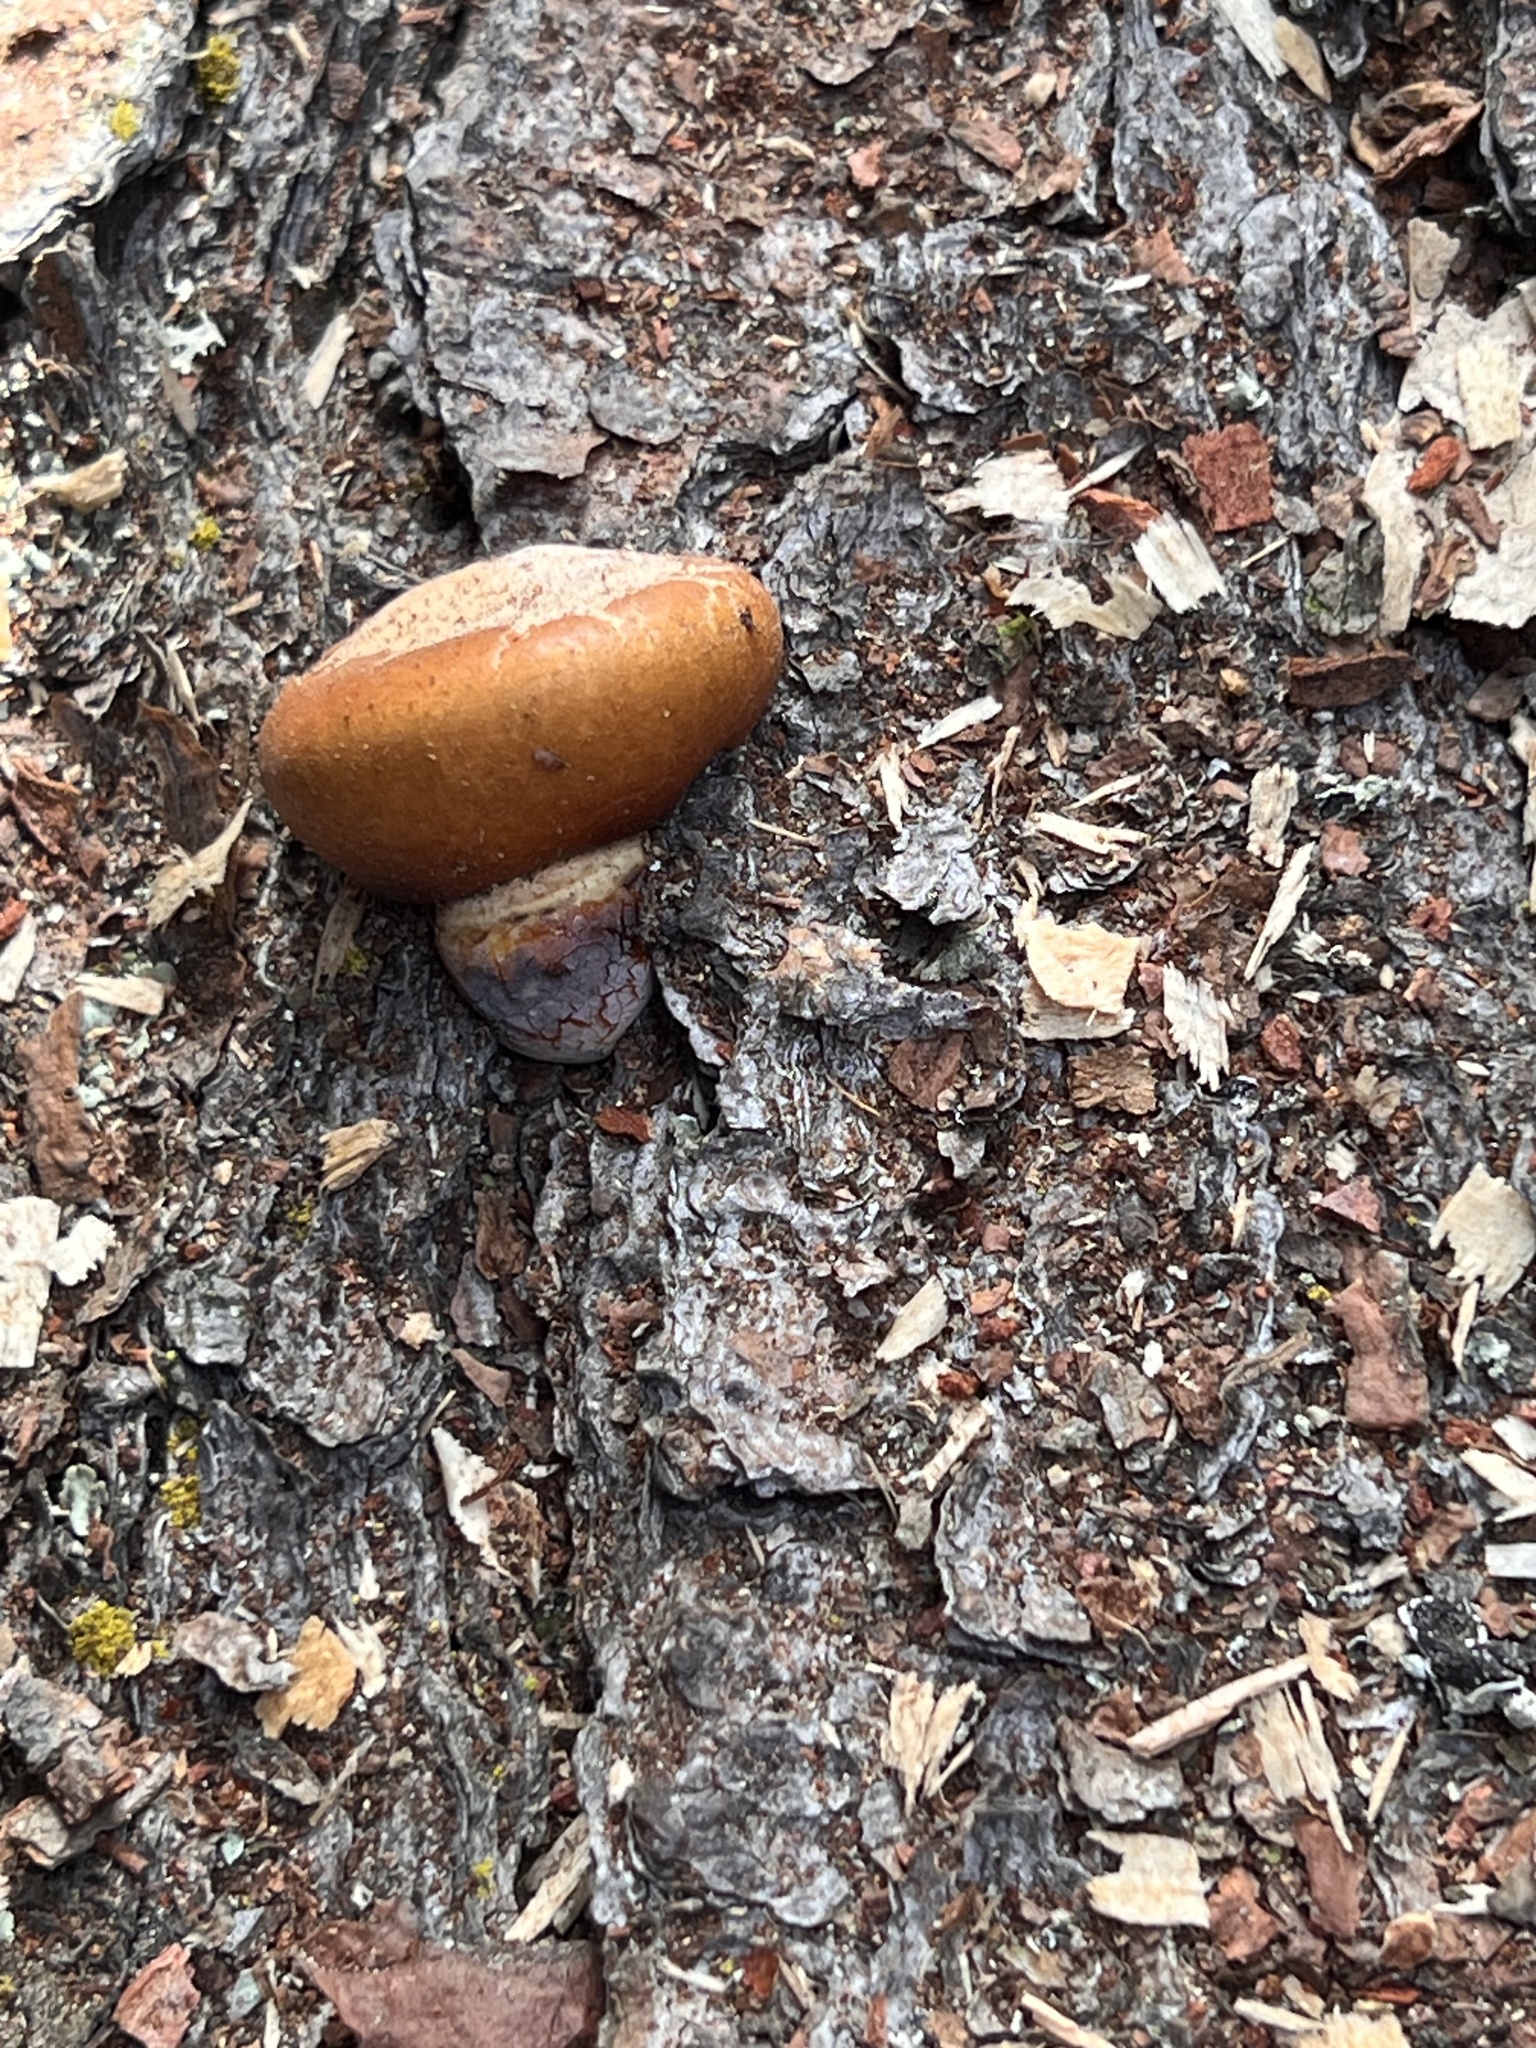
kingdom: Fungi
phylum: Basidiomycota
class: Agaricomycetes
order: Polyporales
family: Polyporaceae
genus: Cryptoporus
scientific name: Cryptoporus volvatus
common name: Veiled polypore
